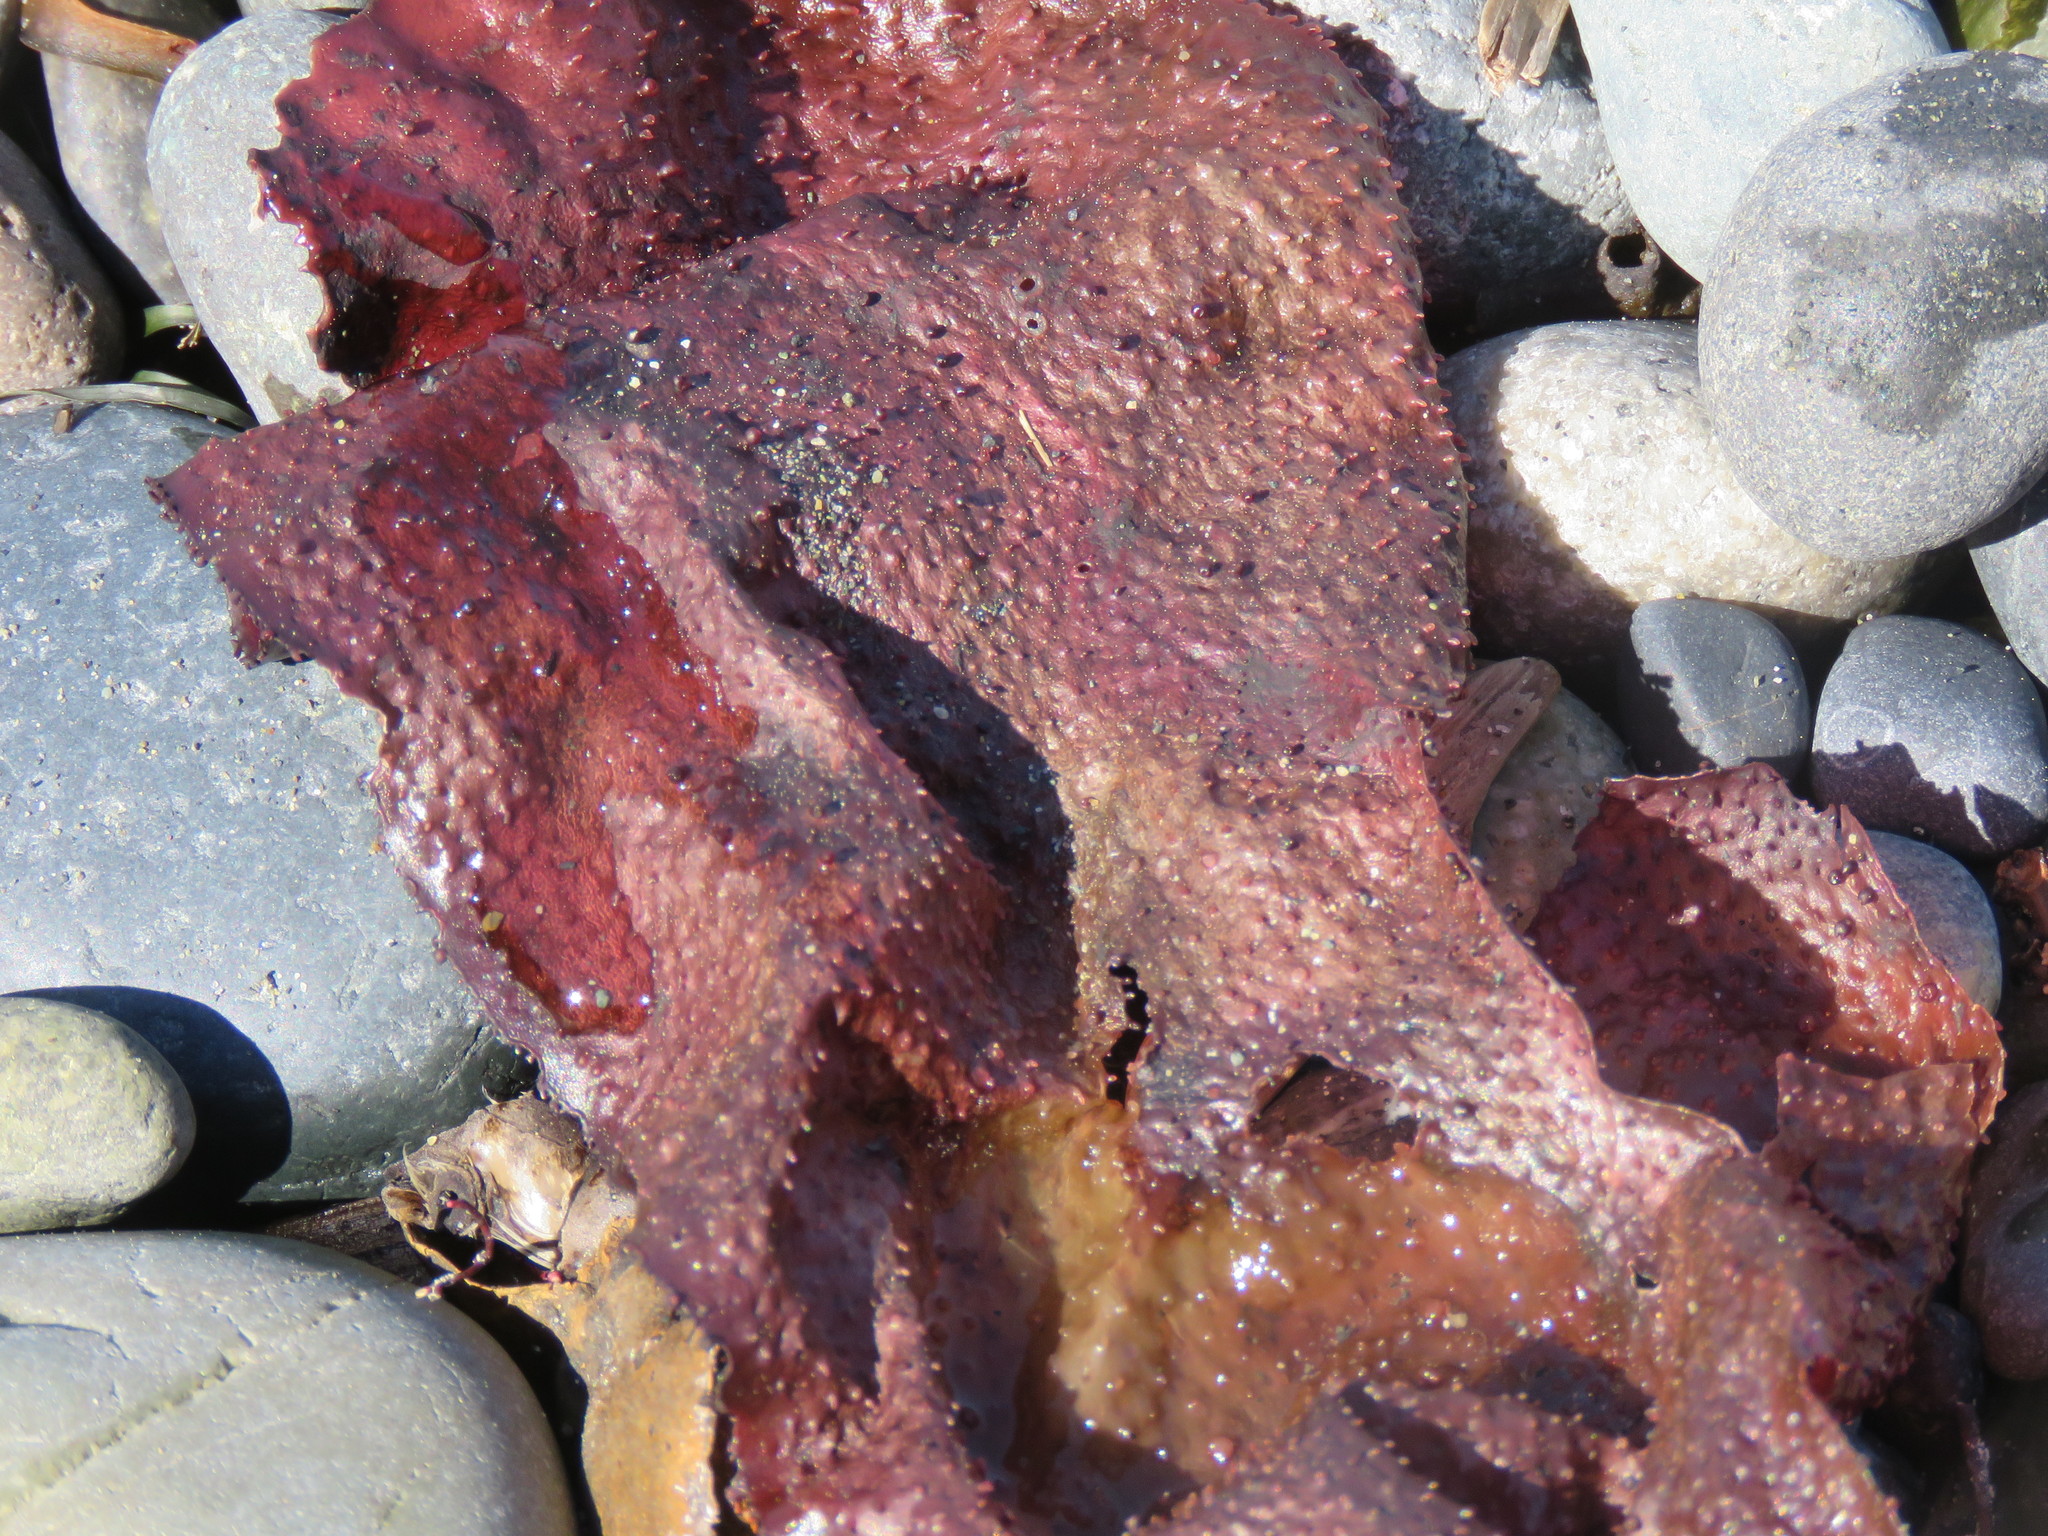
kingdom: Plantae
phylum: Rhodophyta
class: Florideophyceae
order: Gigartinales
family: Gigartinaceae
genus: Chondracanthus
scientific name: Chondracanthus exasperatus
